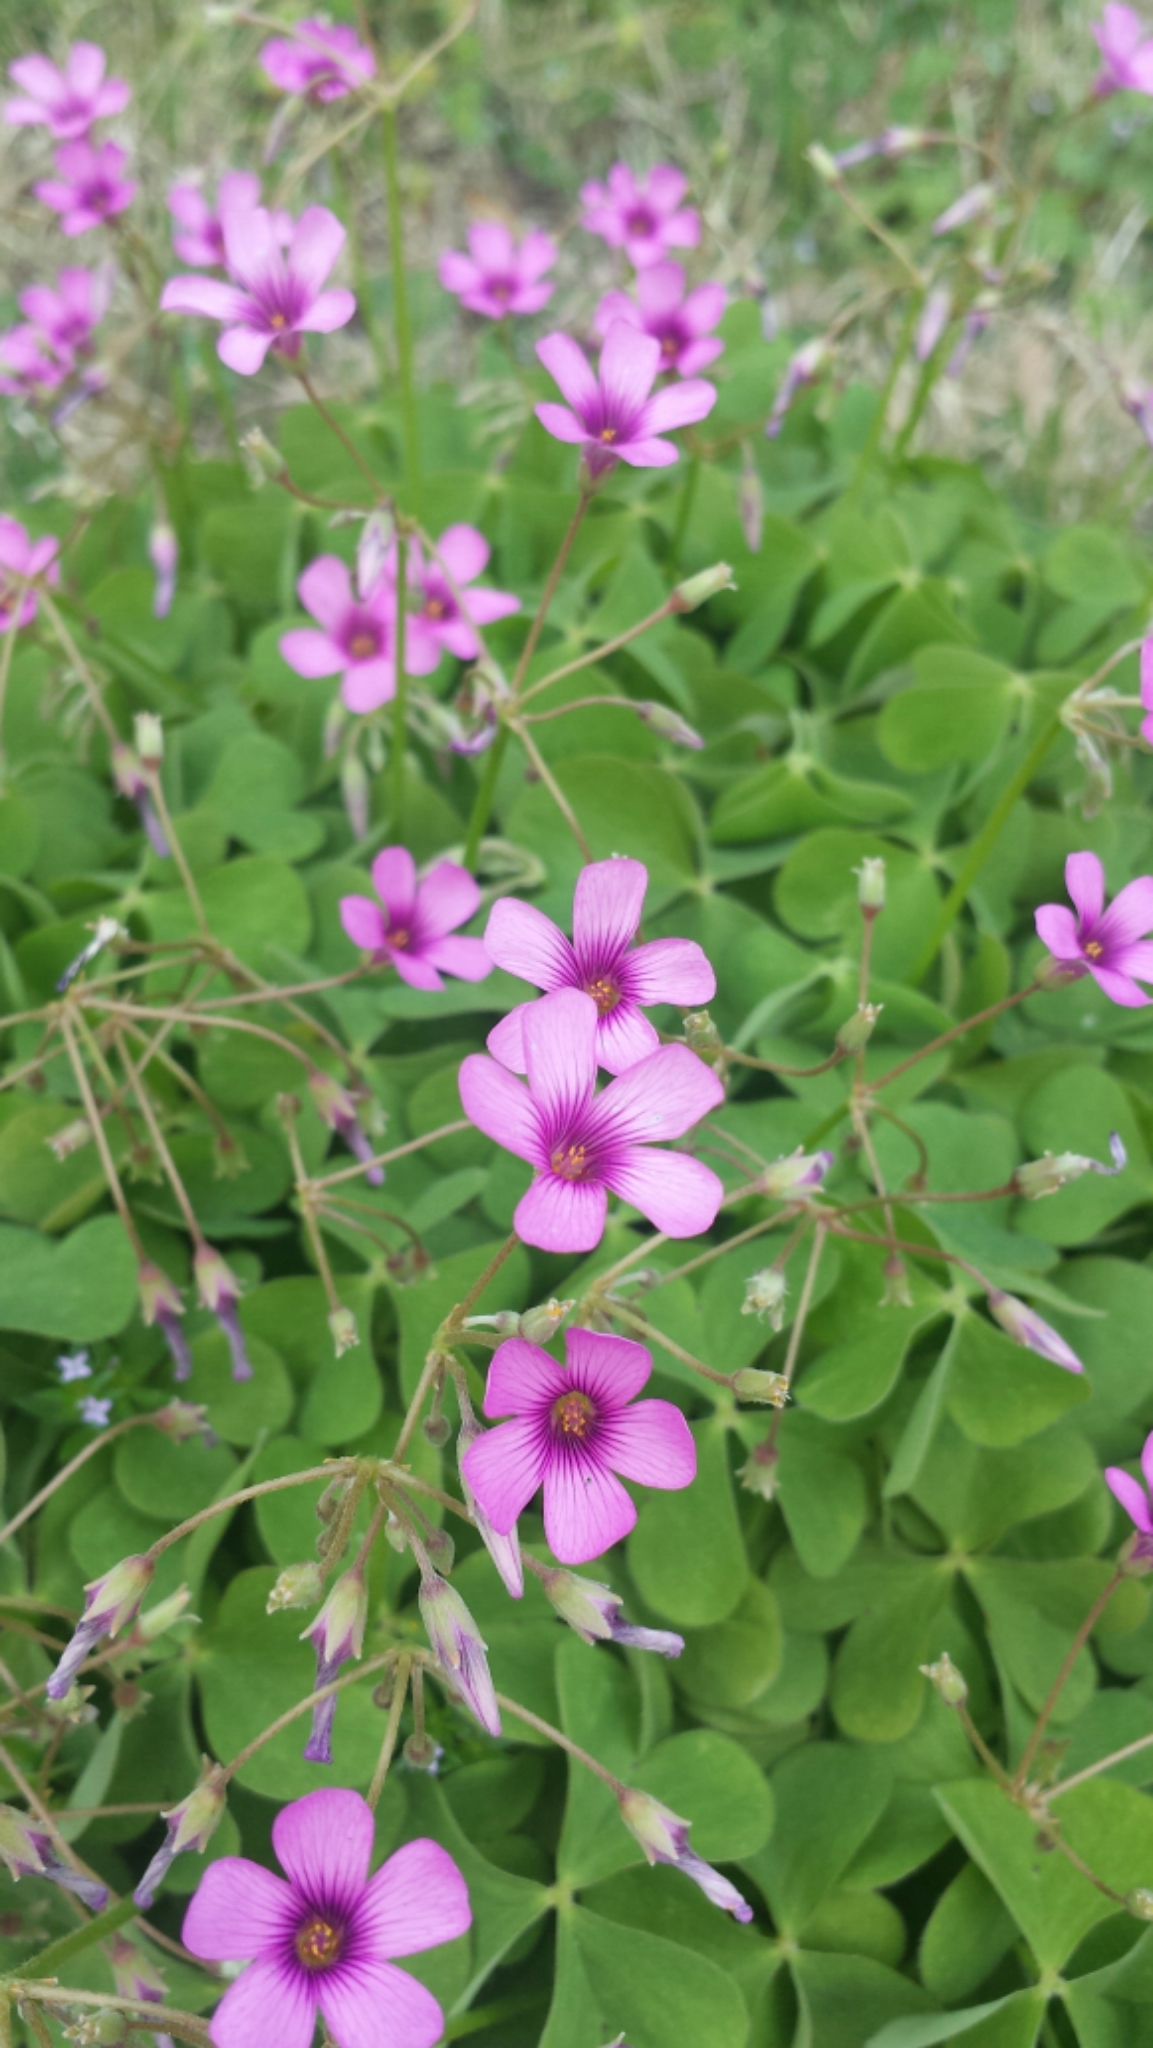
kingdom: Plantae
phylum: Tracheophyta
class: Magnoliopsida
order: Oxalidales
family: Oxalidaceae
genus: Oxalis
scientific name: Oxalis articulata
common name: Pink-sorrel
